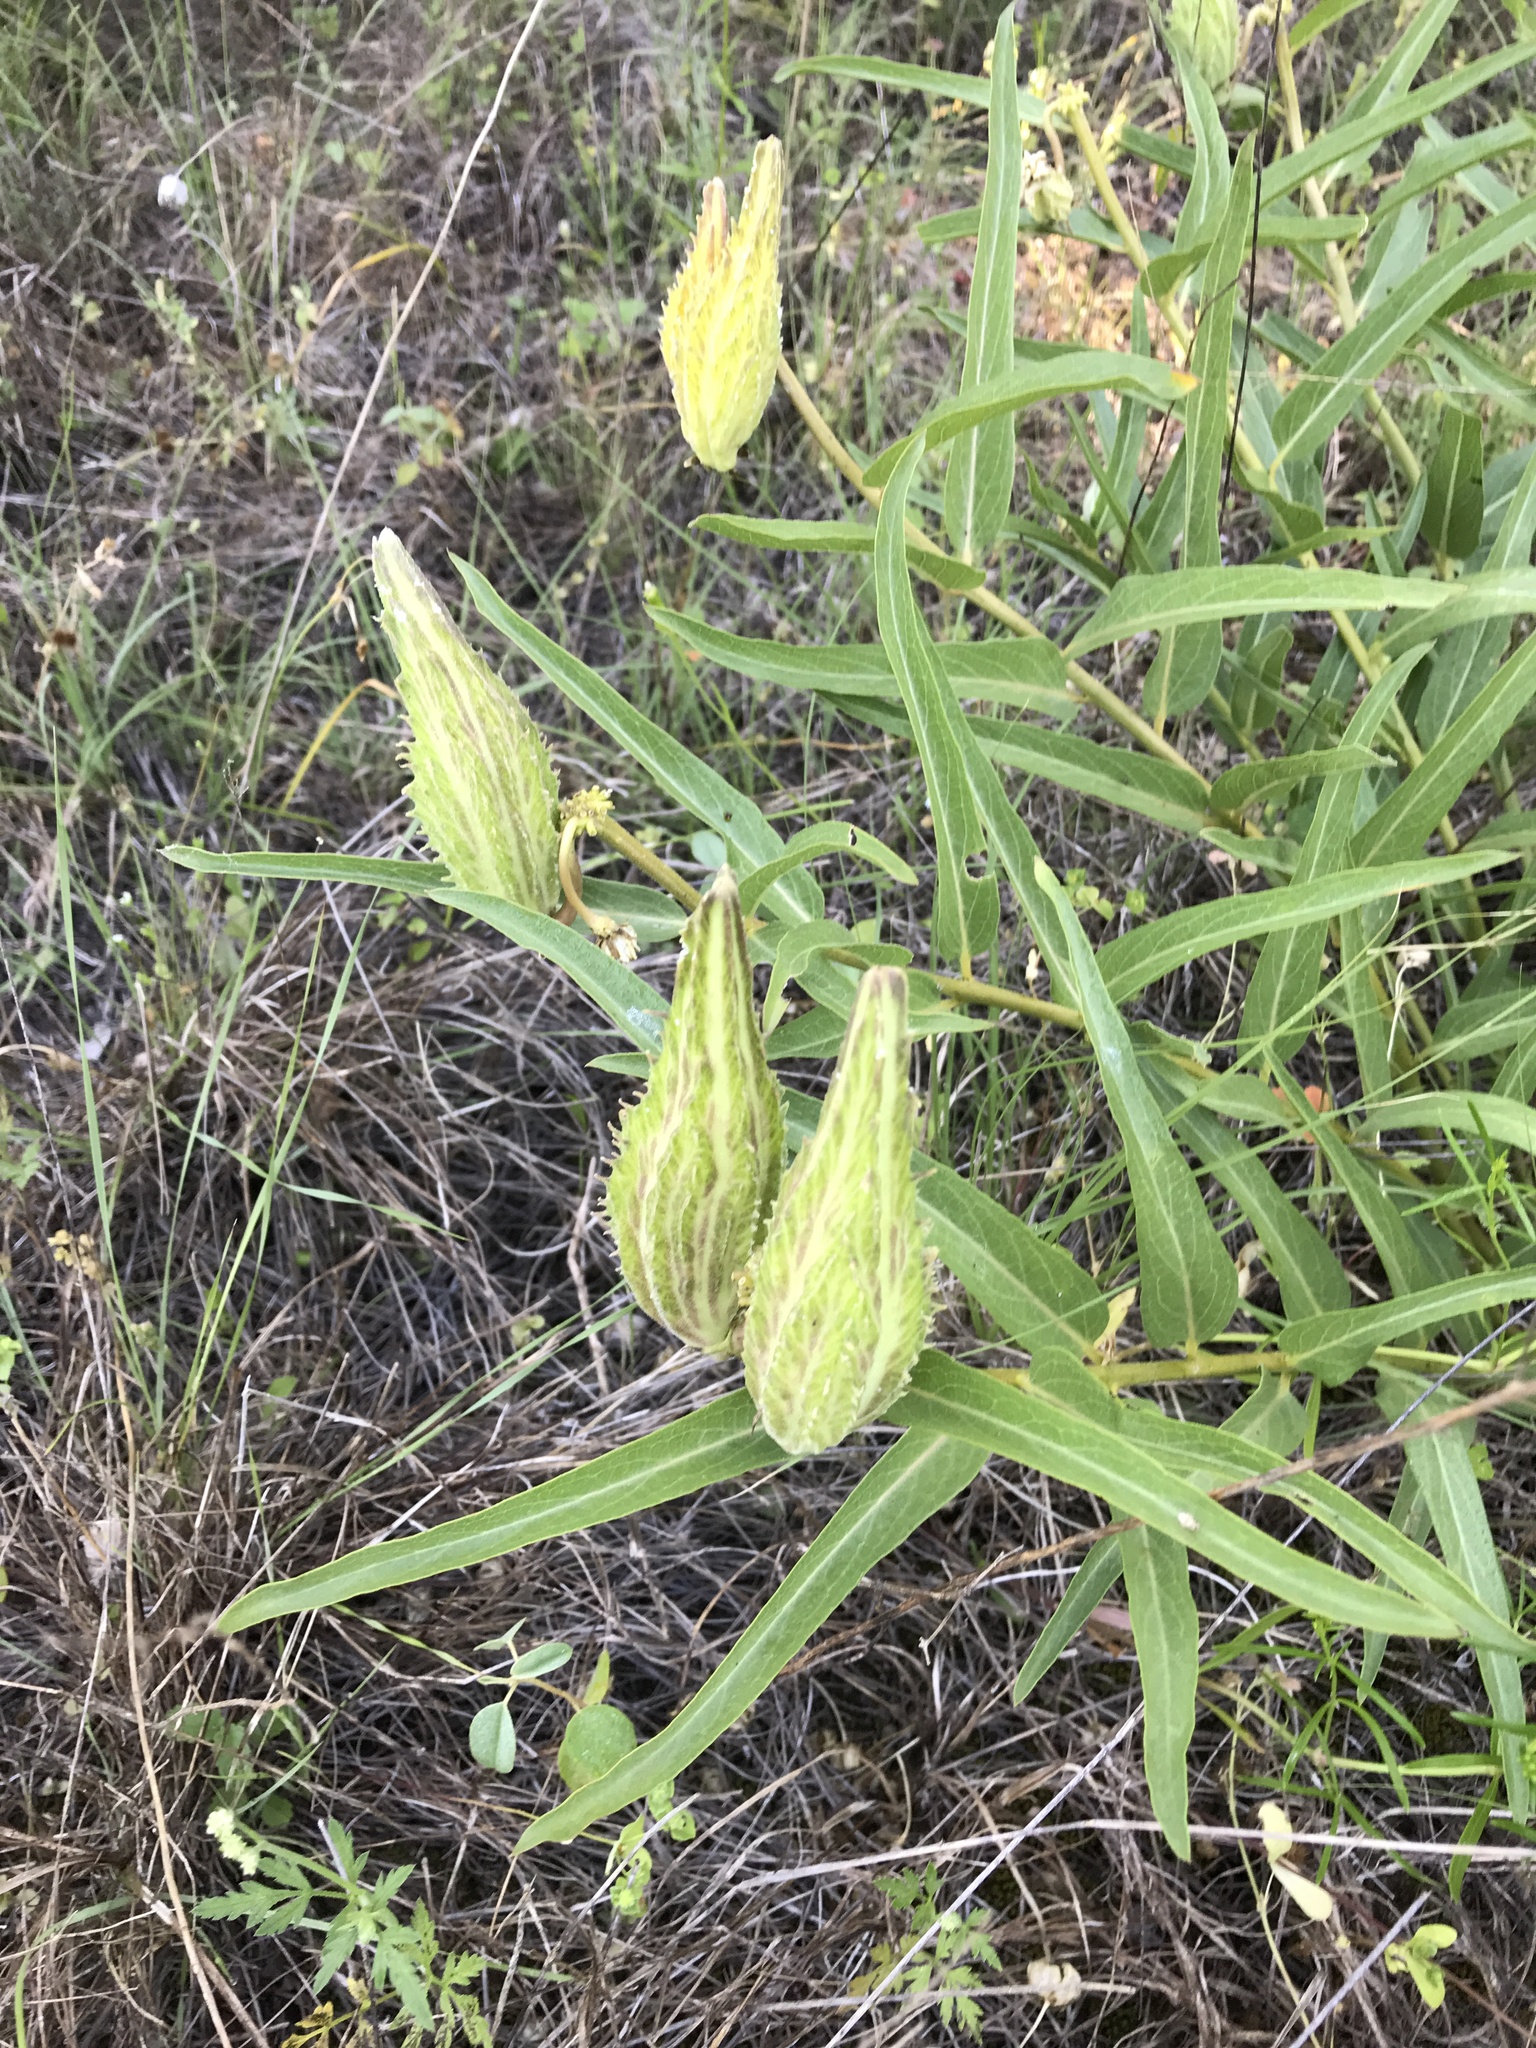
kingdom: Plantae
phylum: Tracheophyta
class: Magnoliopsida
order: Gentianales
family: Apocynaceae
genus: Asclepias
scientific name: Asclepias asperula
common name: Antelope horns
